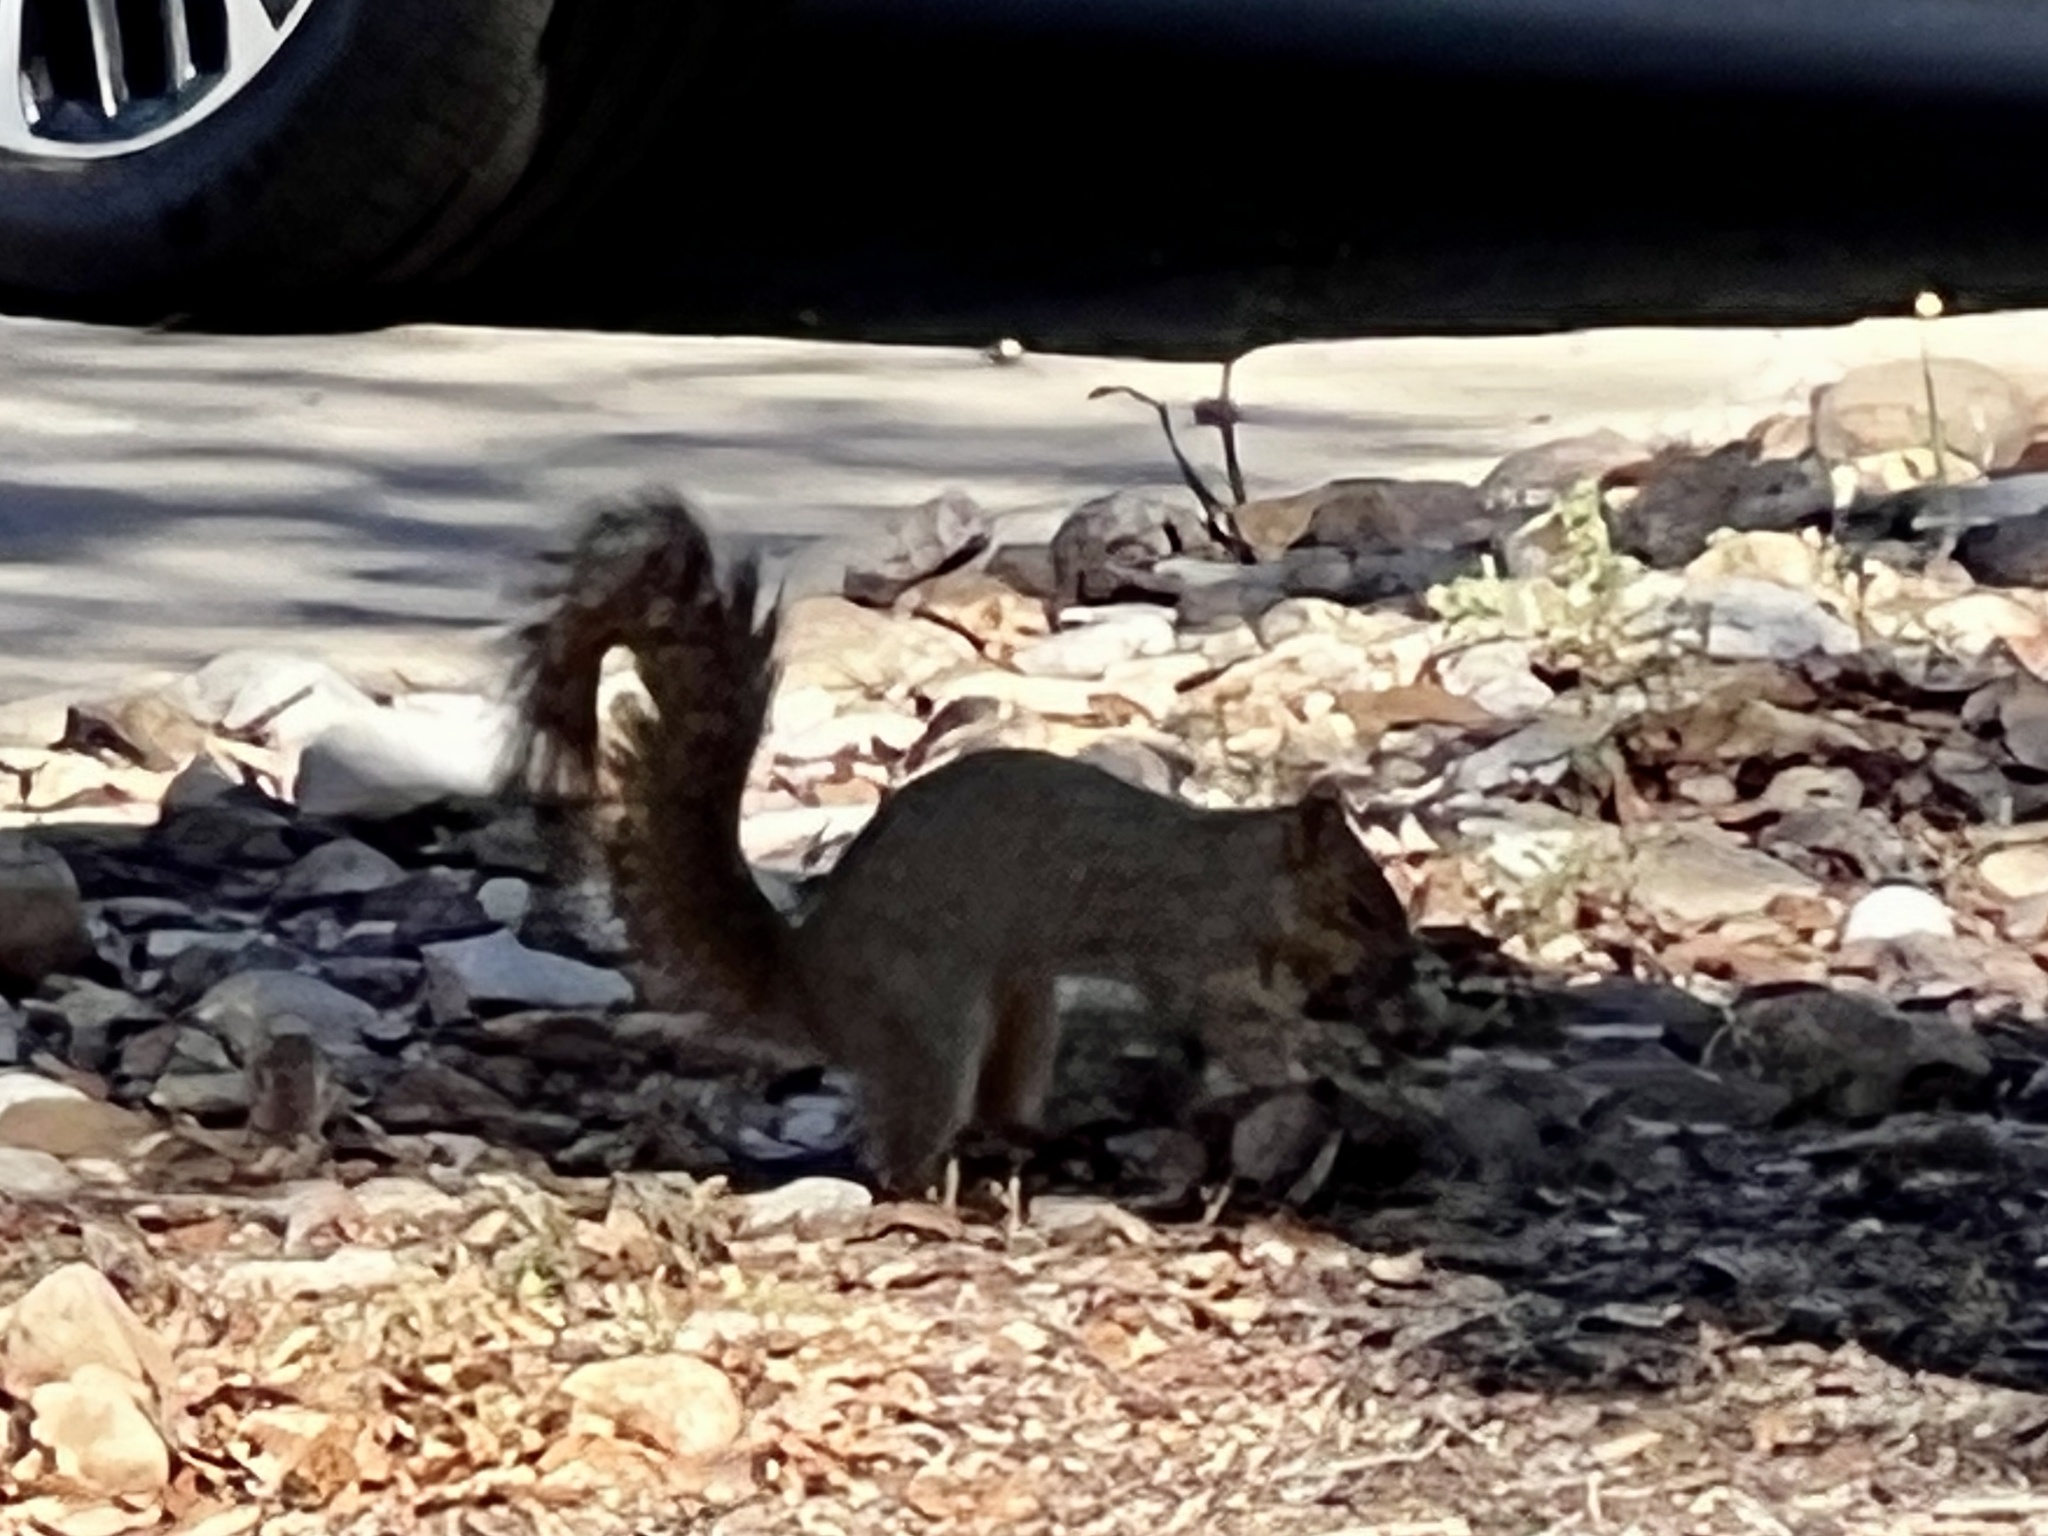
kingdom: Animalia
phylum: Chordata
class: Mammalia
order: Rodentia
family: Sciuridae
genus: Sciurus
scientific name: Sciurus niger
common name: Fox squirrel
